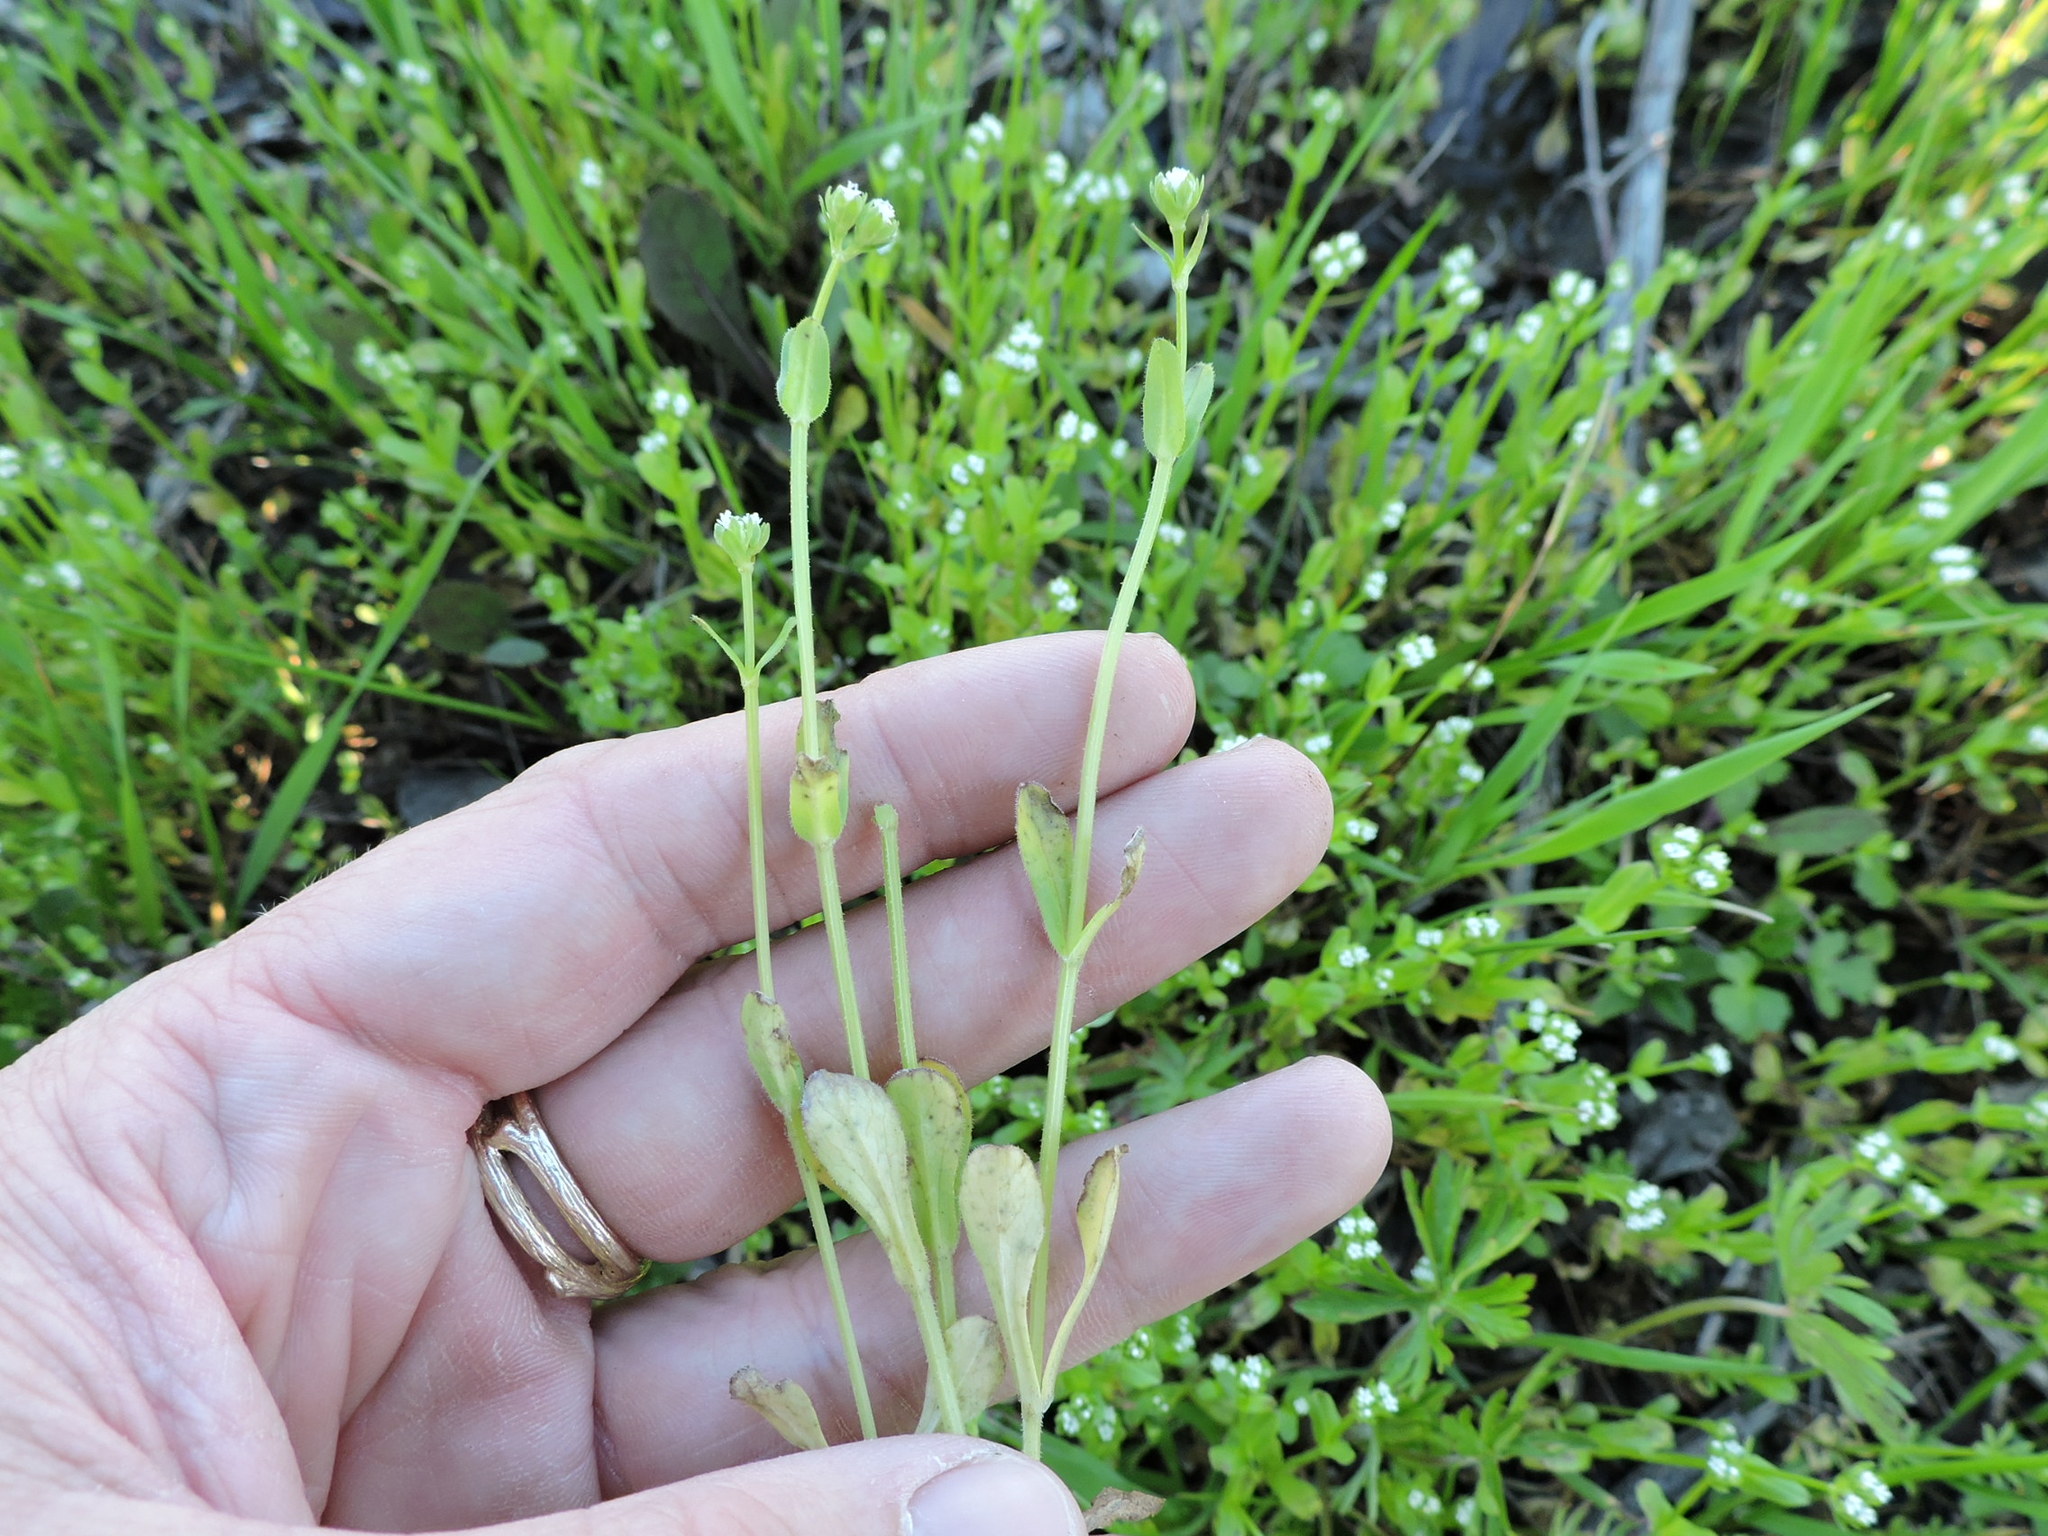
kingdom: Plantae
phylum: Tracheophyta
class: Magnoliopsida
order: Dipsacales
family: Caprifoliaceae
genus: Valerianella
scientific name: Valerianella radiata
